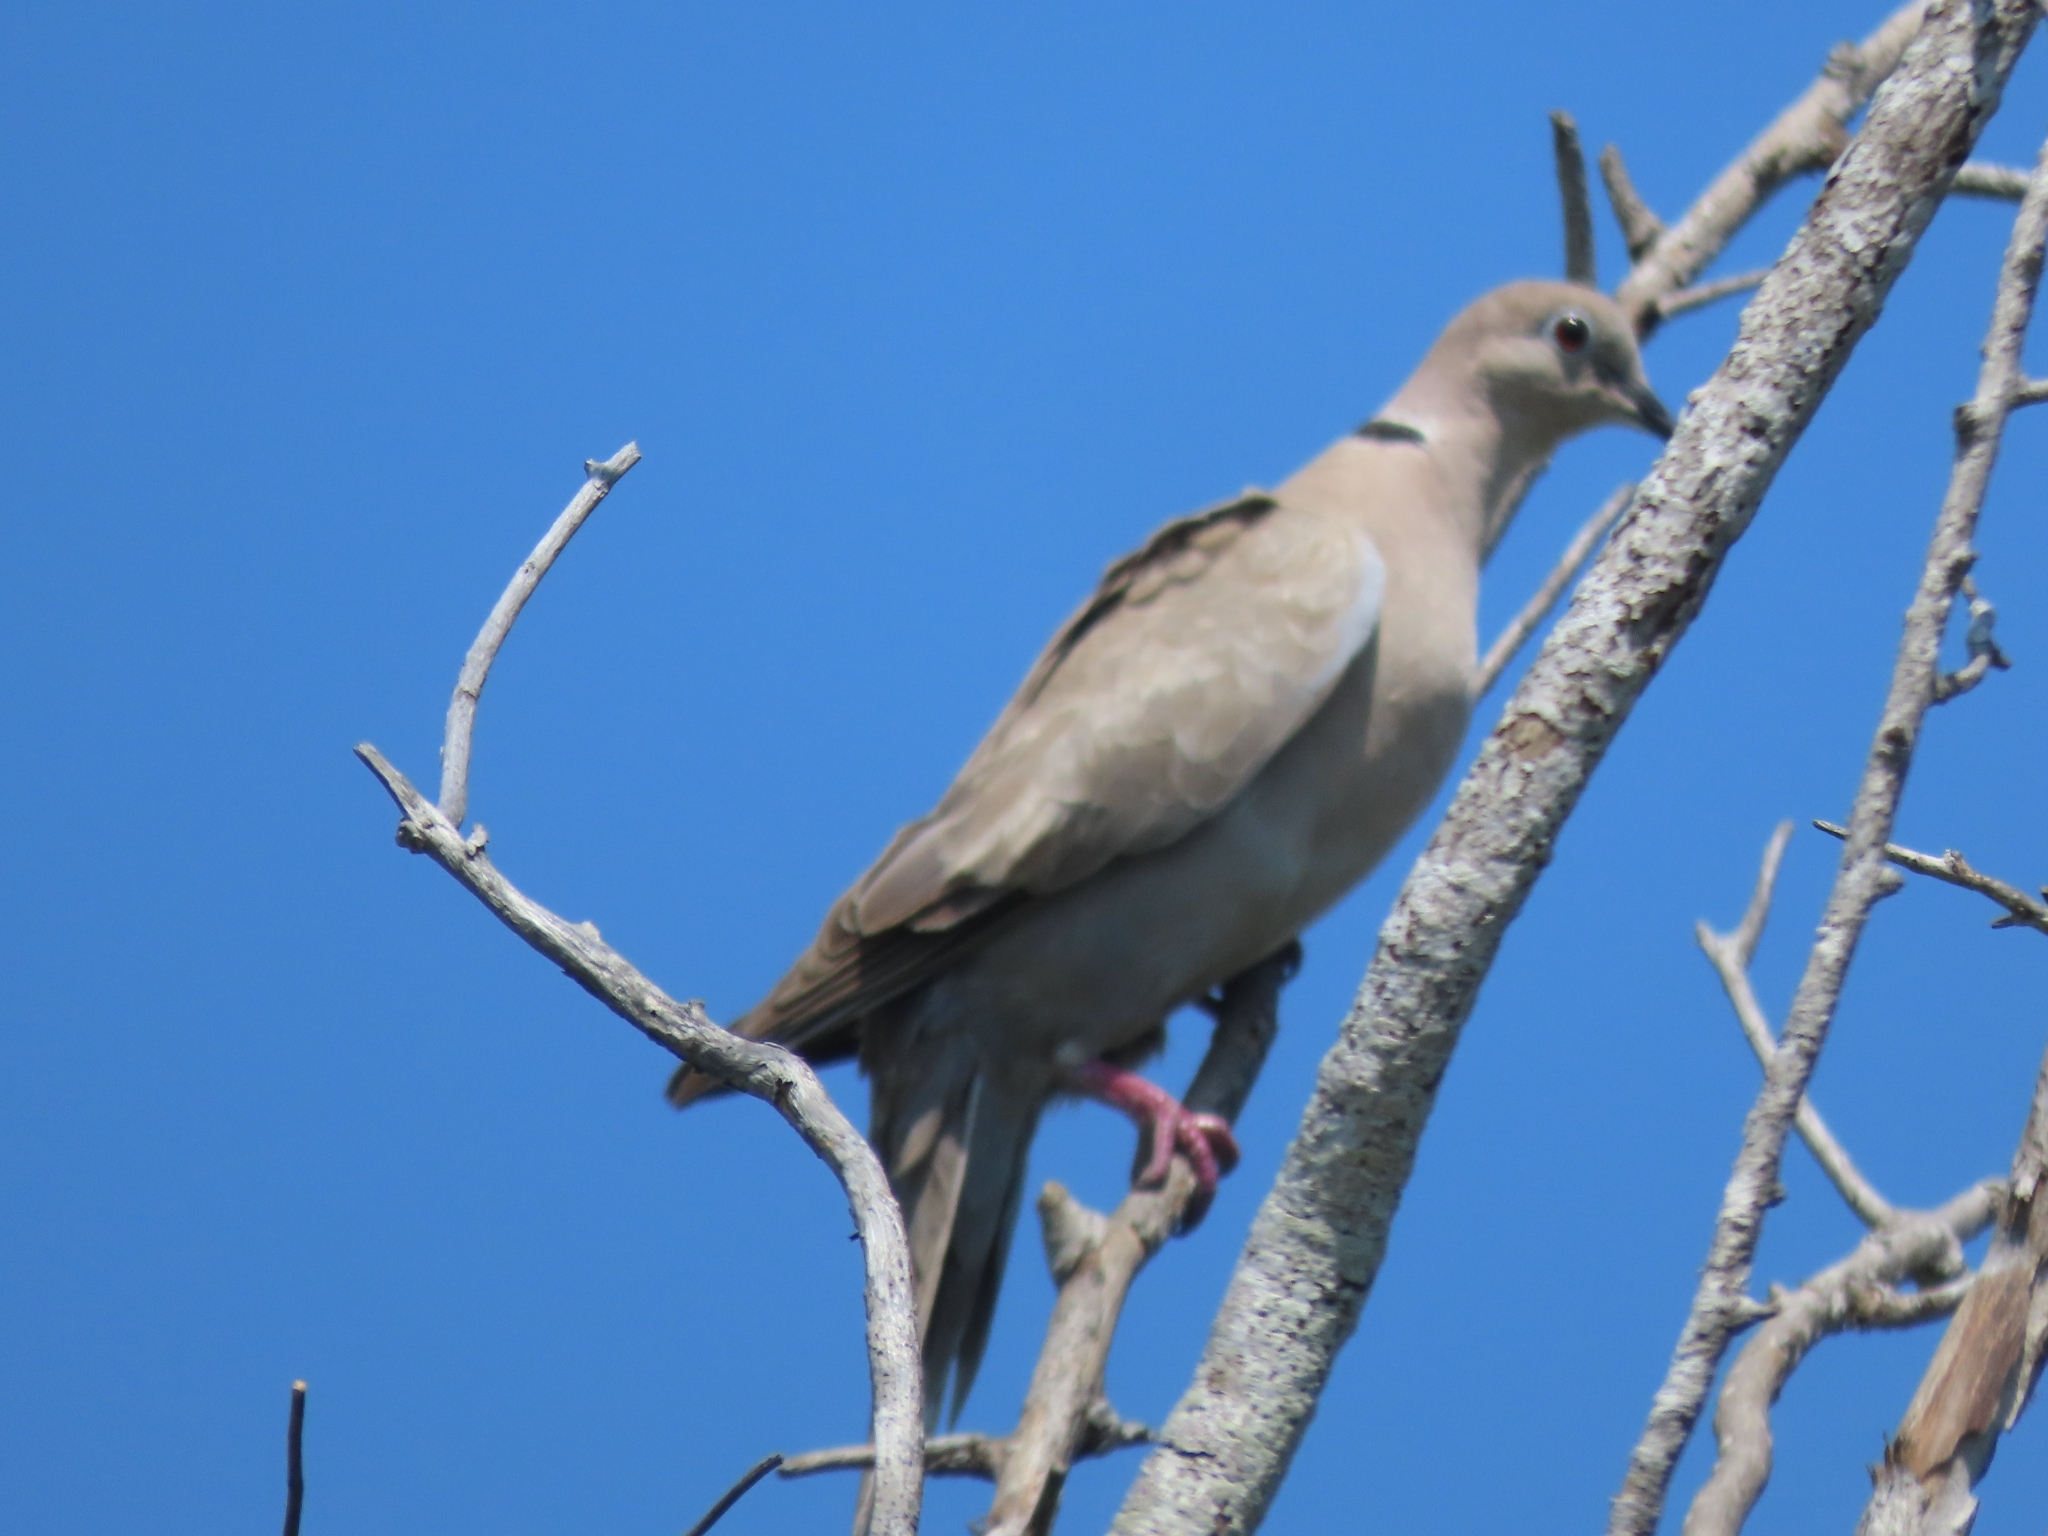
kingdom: Animalia
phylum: Chordata
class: Aves
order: Columbiformes
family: Columbidae
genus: Streptopelia
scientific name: Streptopelia decaocto
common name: Eurasian collared dove
